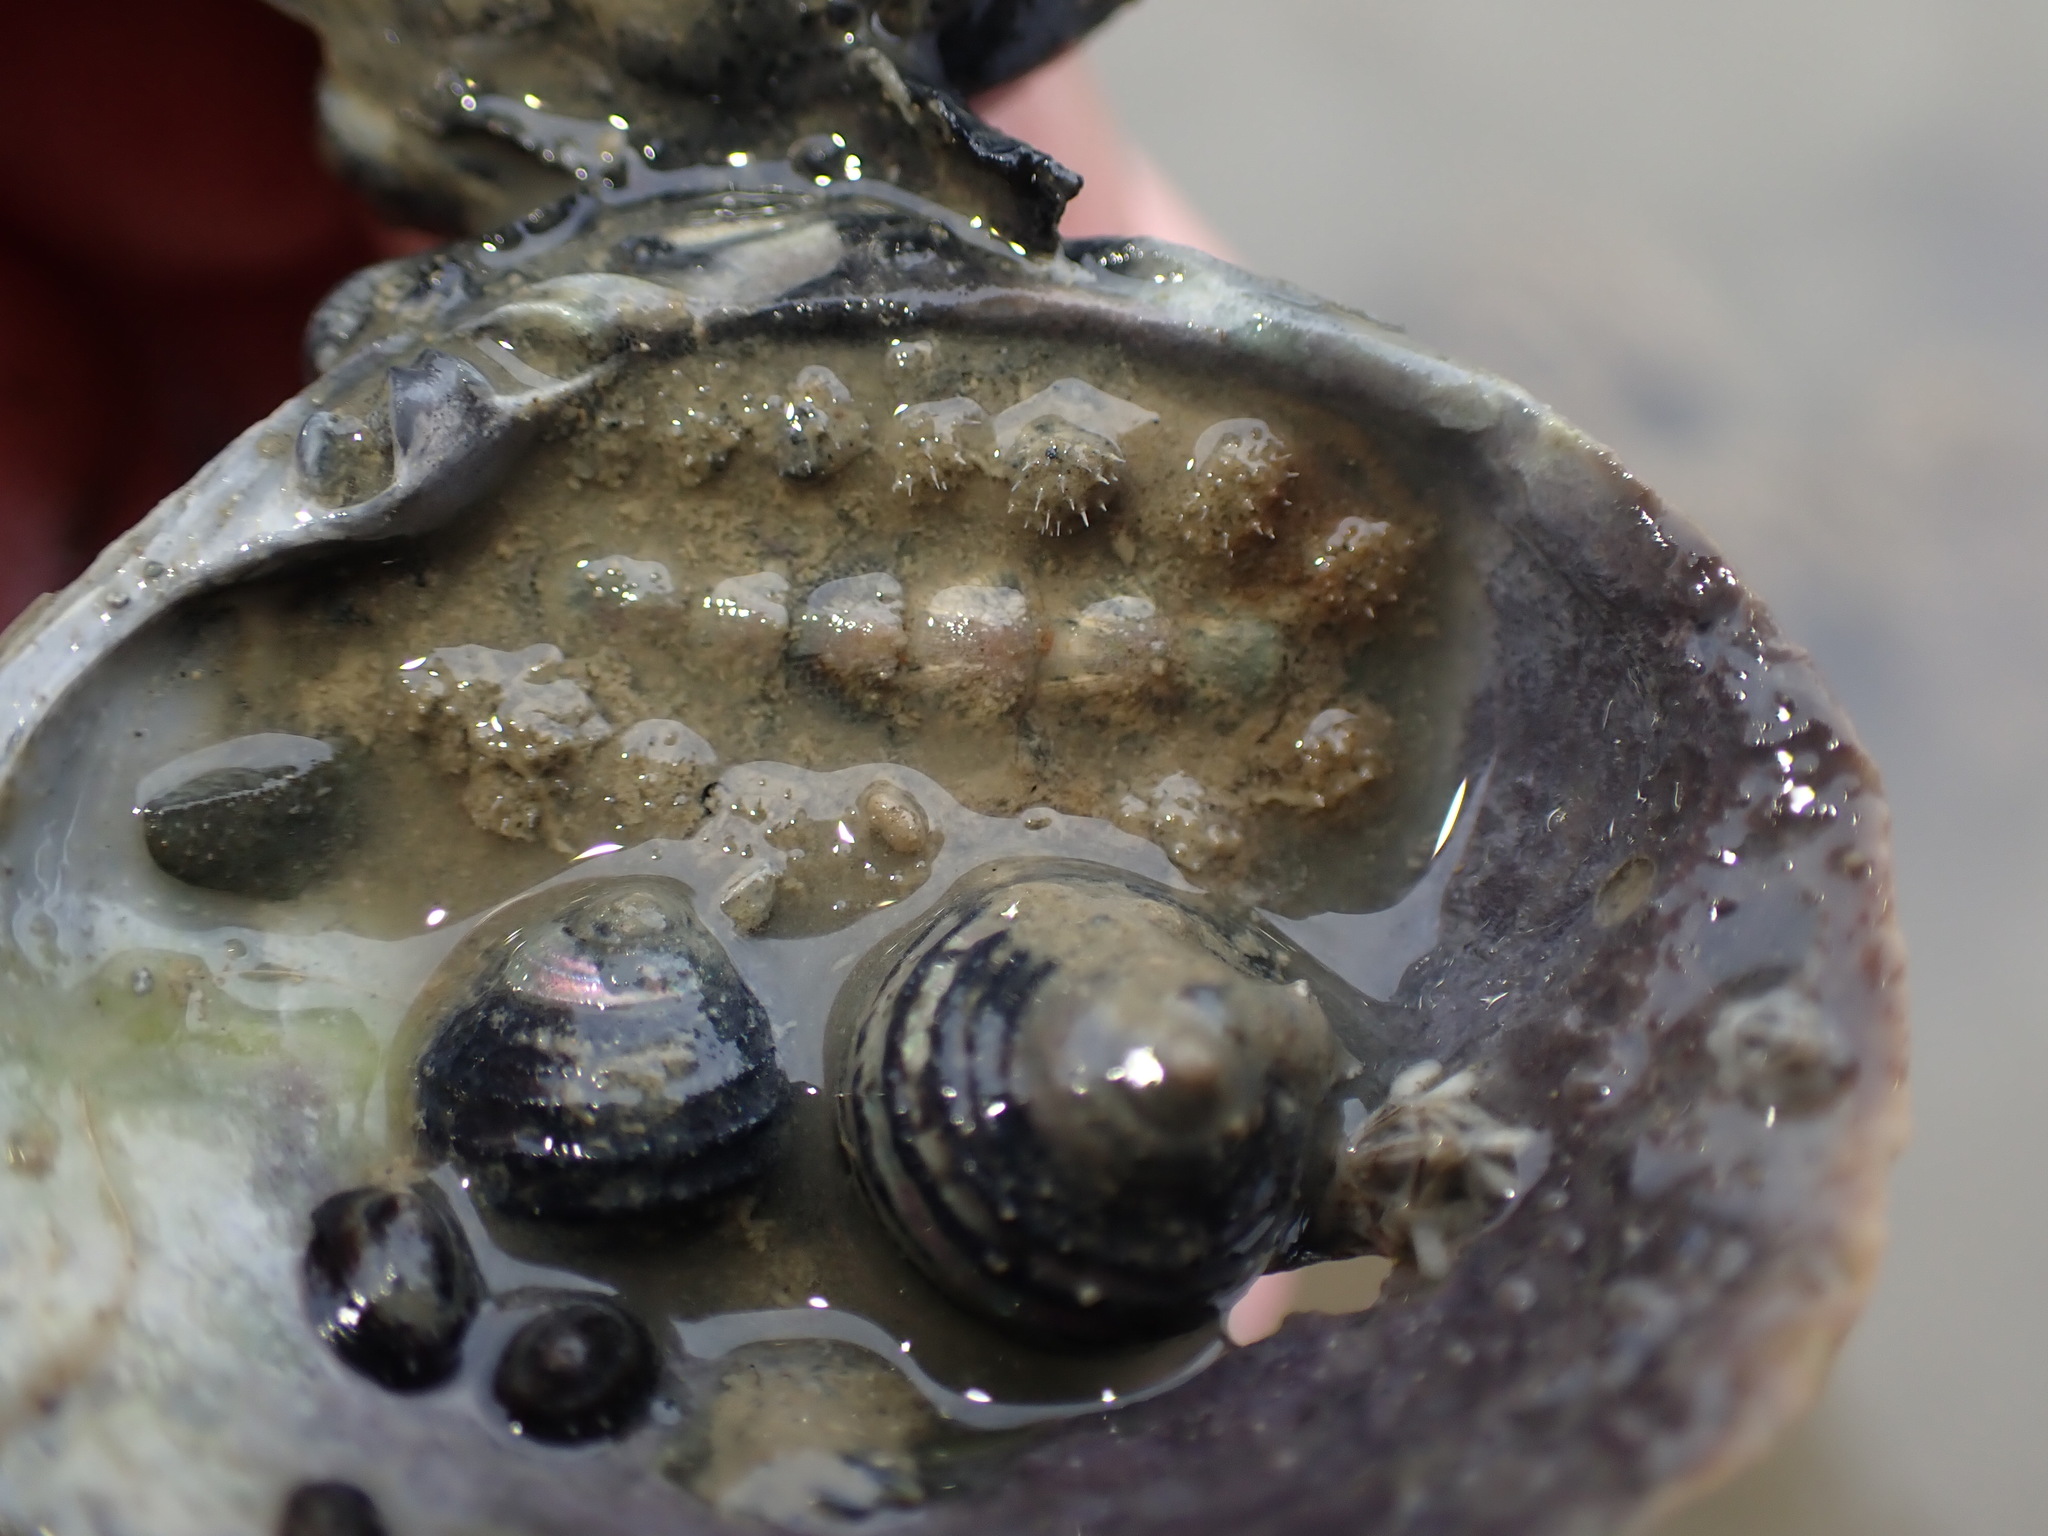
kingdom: Animalia
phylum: Mollusca
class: Polyplacophora
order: Chitonida
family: Acanthochitonidae
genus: Acanthochitona
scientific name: Acanthochitona zelandica
